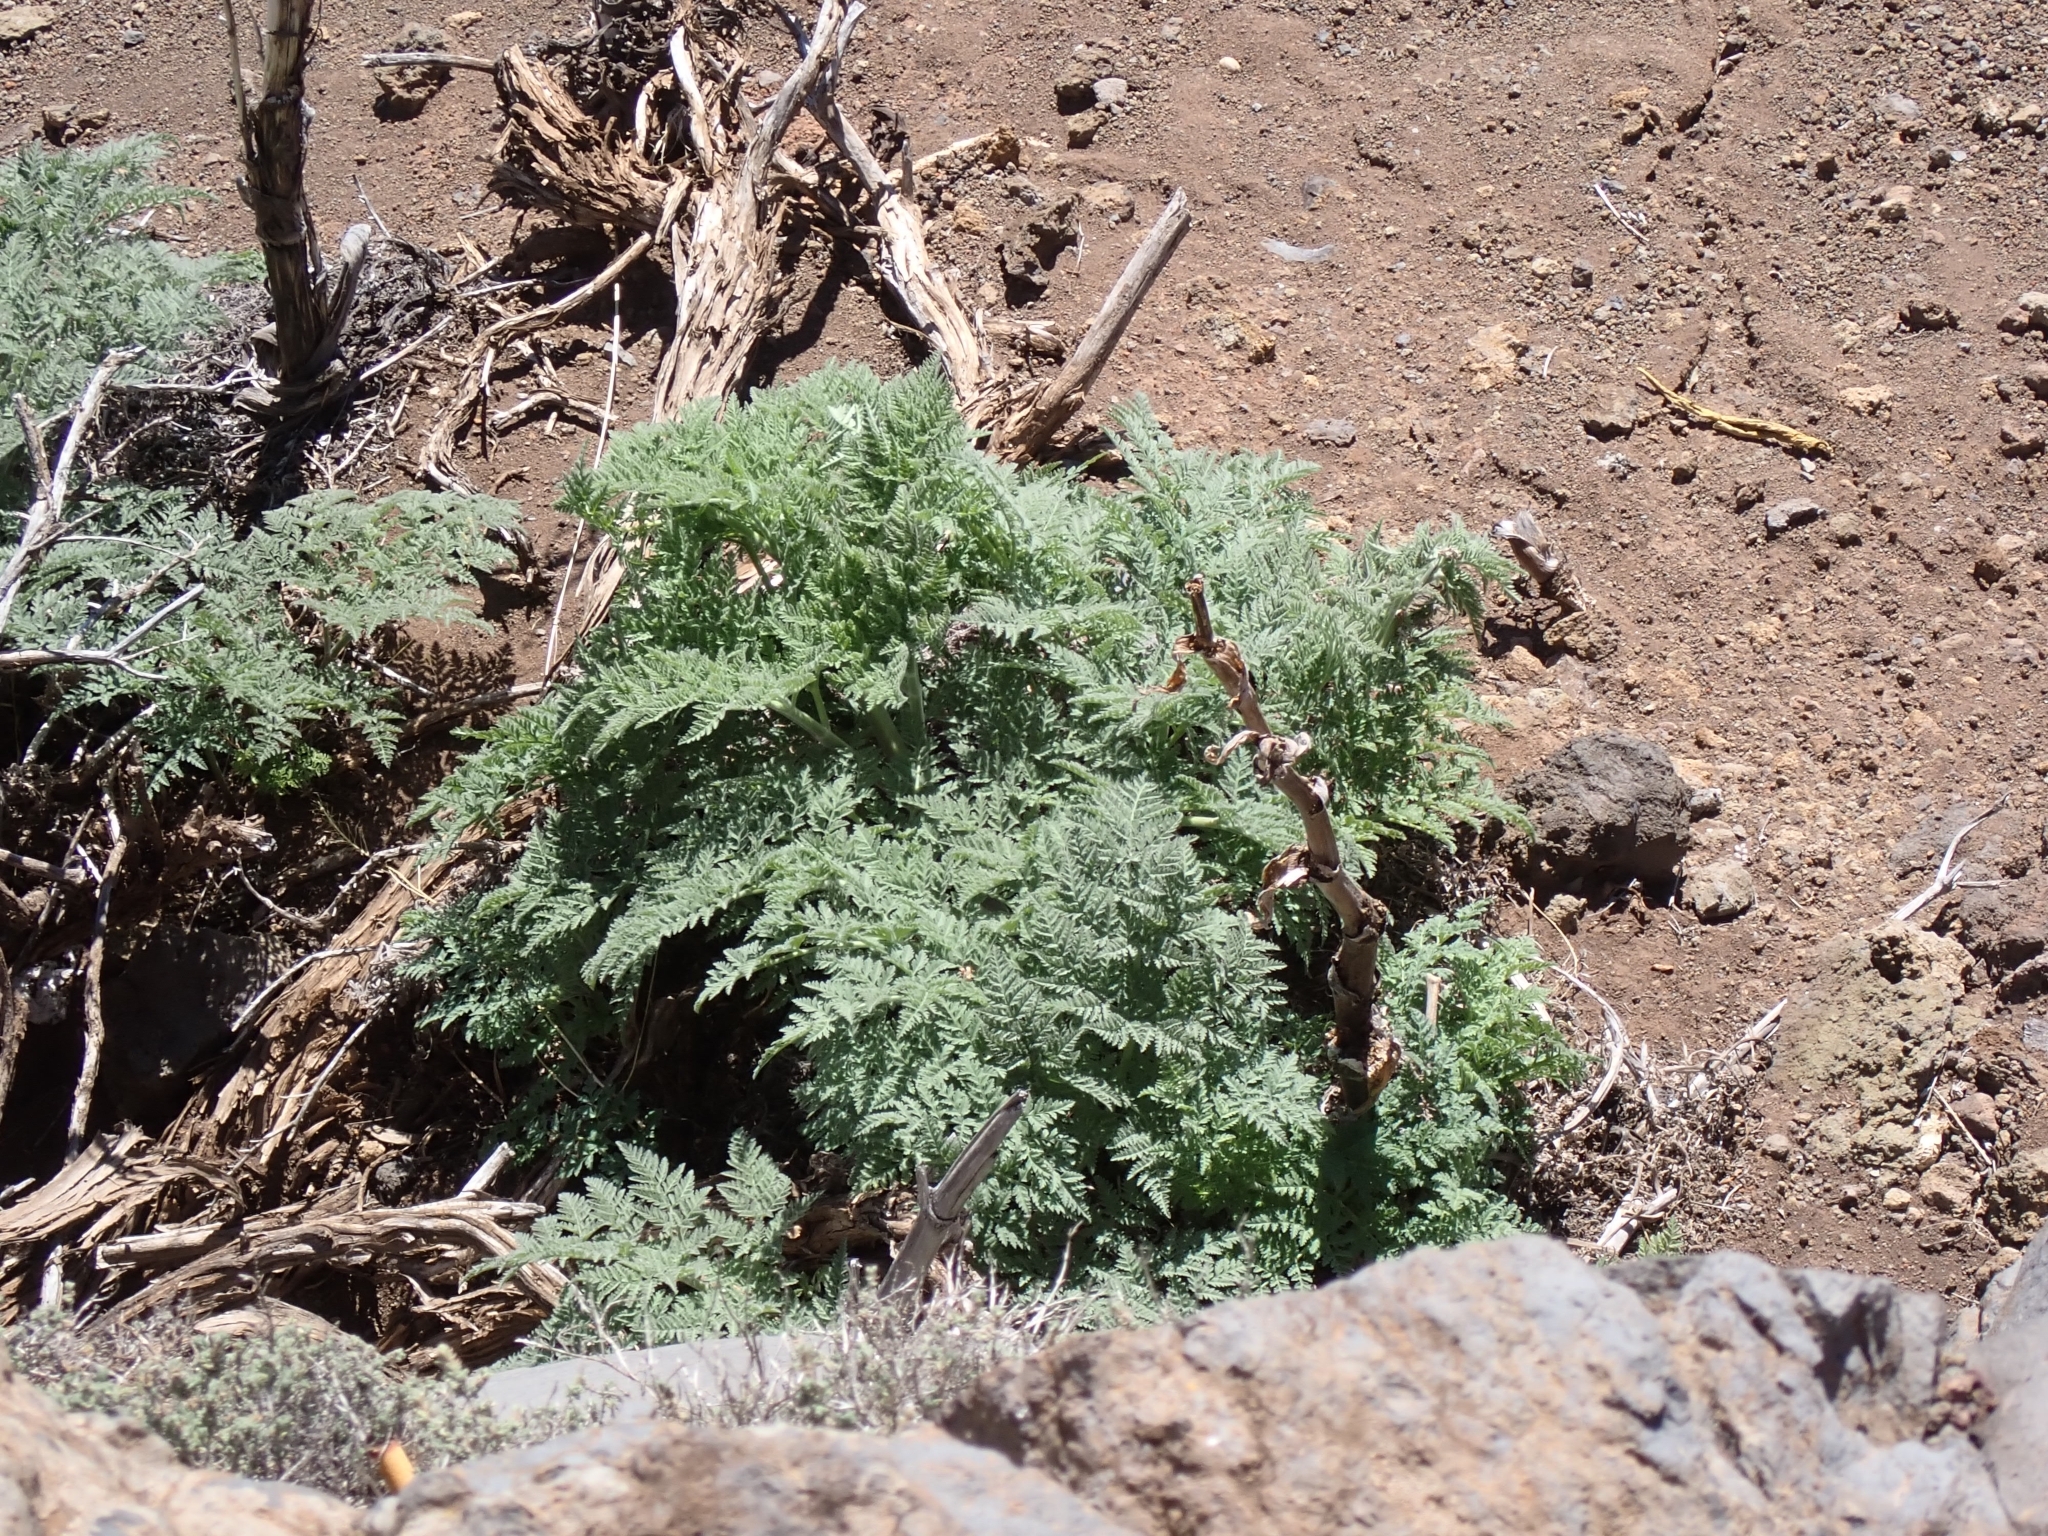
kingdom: Plantae
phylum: Tracheophyta
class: Magnoliopsida
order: Apiales
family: Apiaceae
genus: Athamanta
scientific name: Athamanta montana
